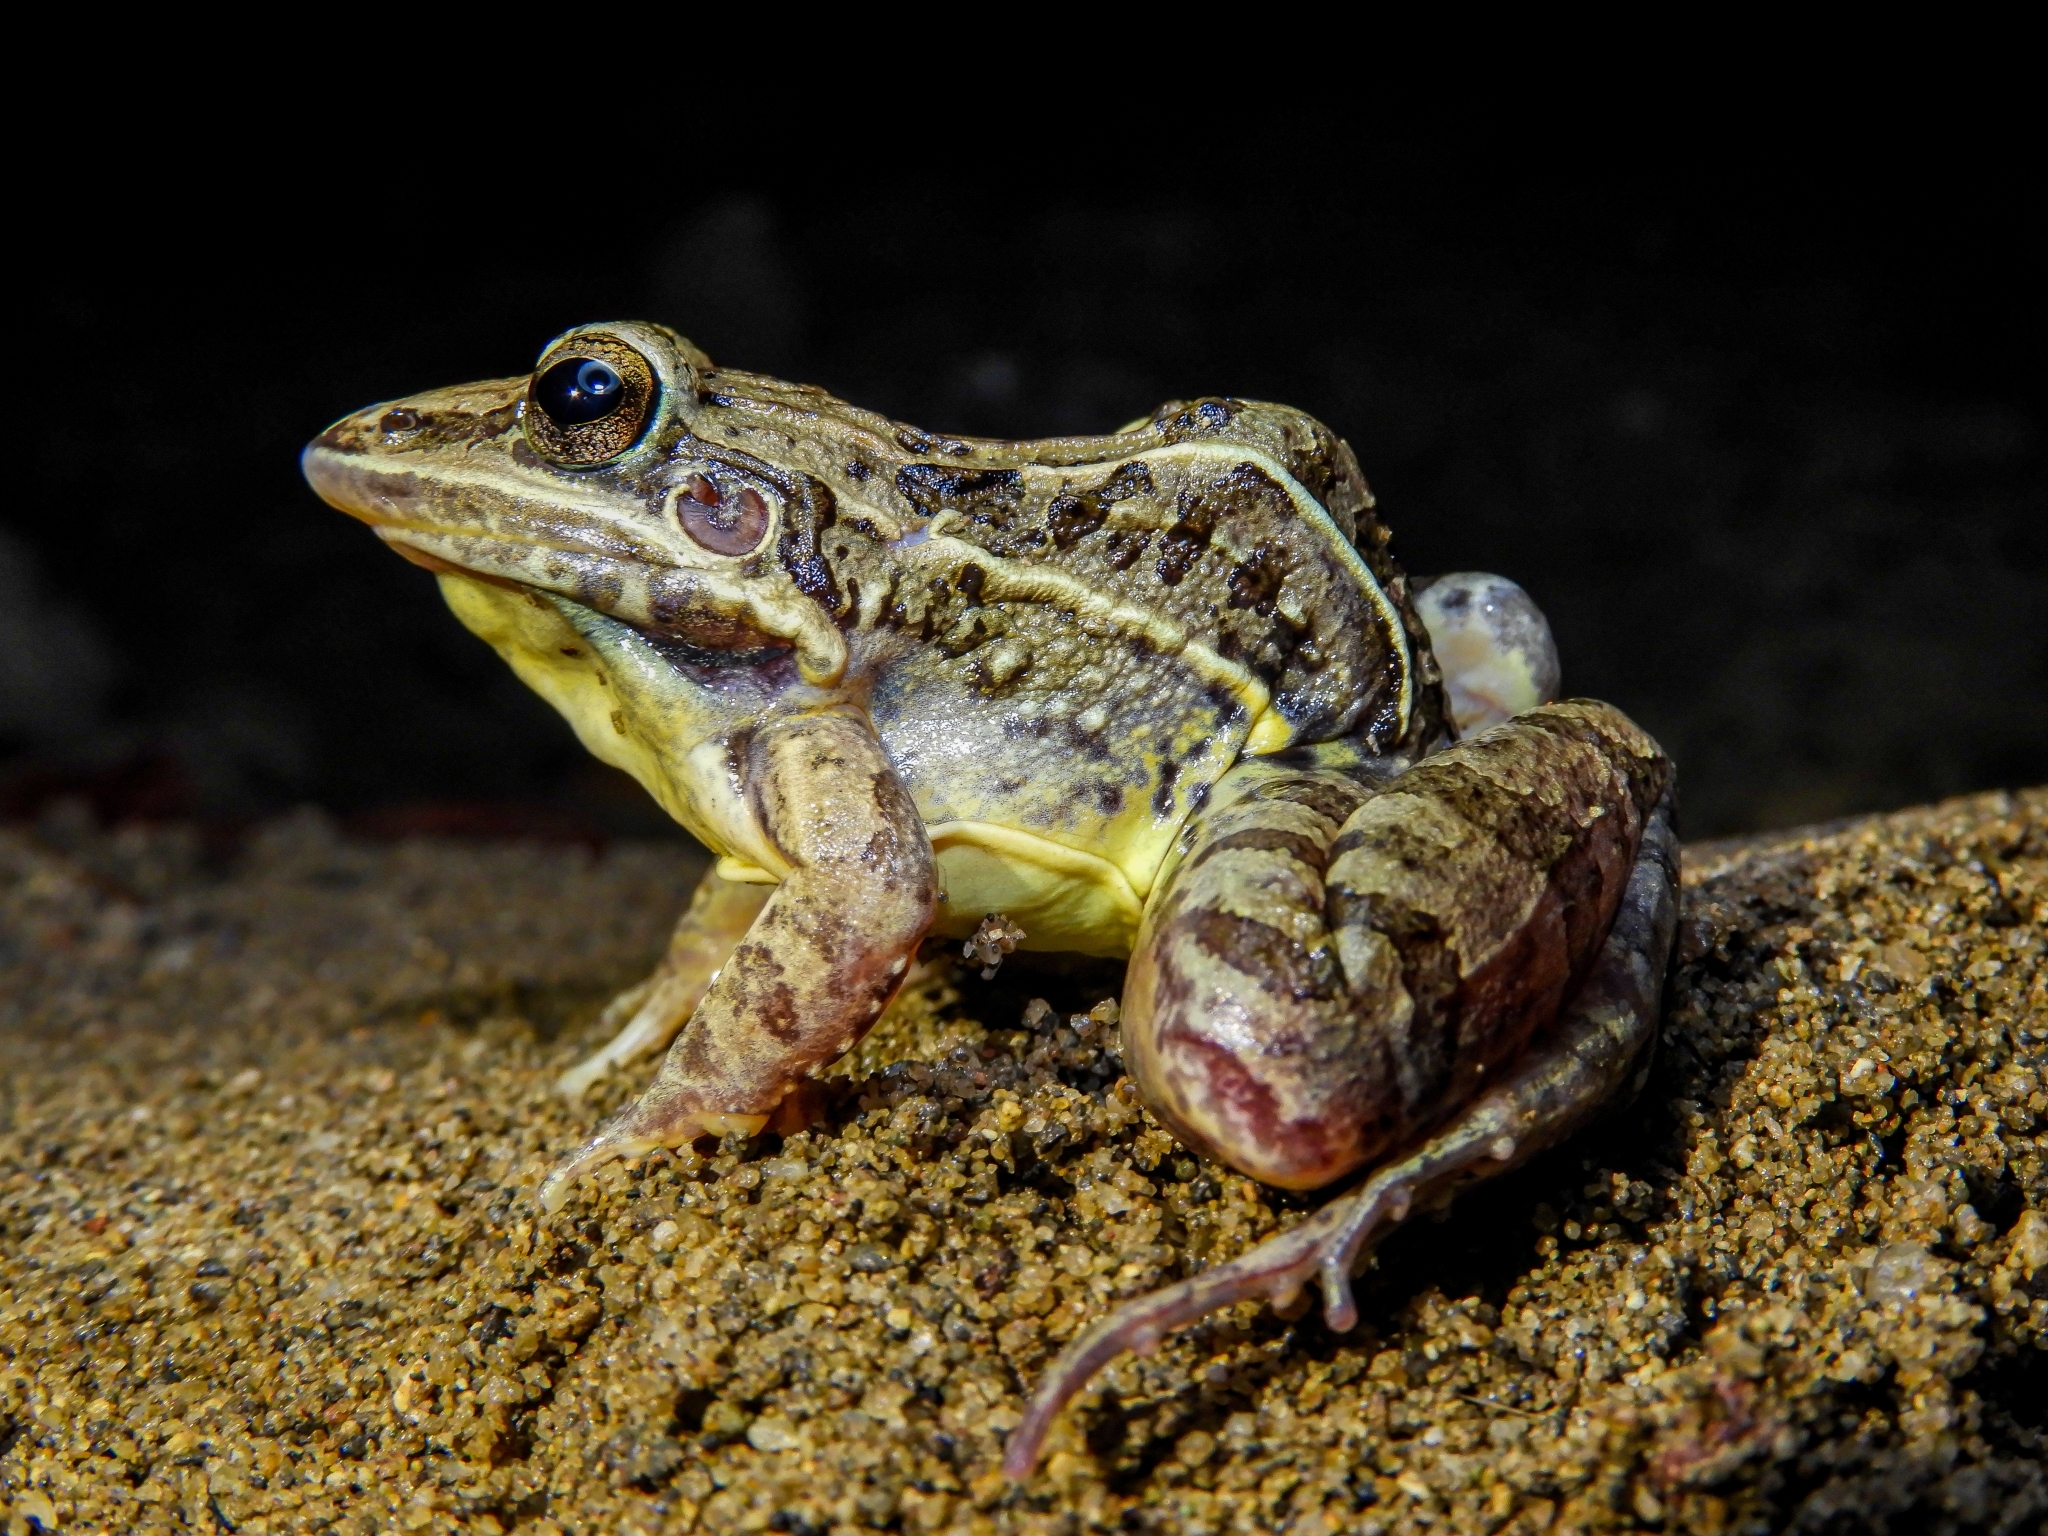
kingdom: Animalia
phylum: Chordata
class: Amphibia
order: Anura
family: Leptodactylidae
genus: Leptodactylus
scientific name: Leptodactylus fuscus
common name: Rufous frog
